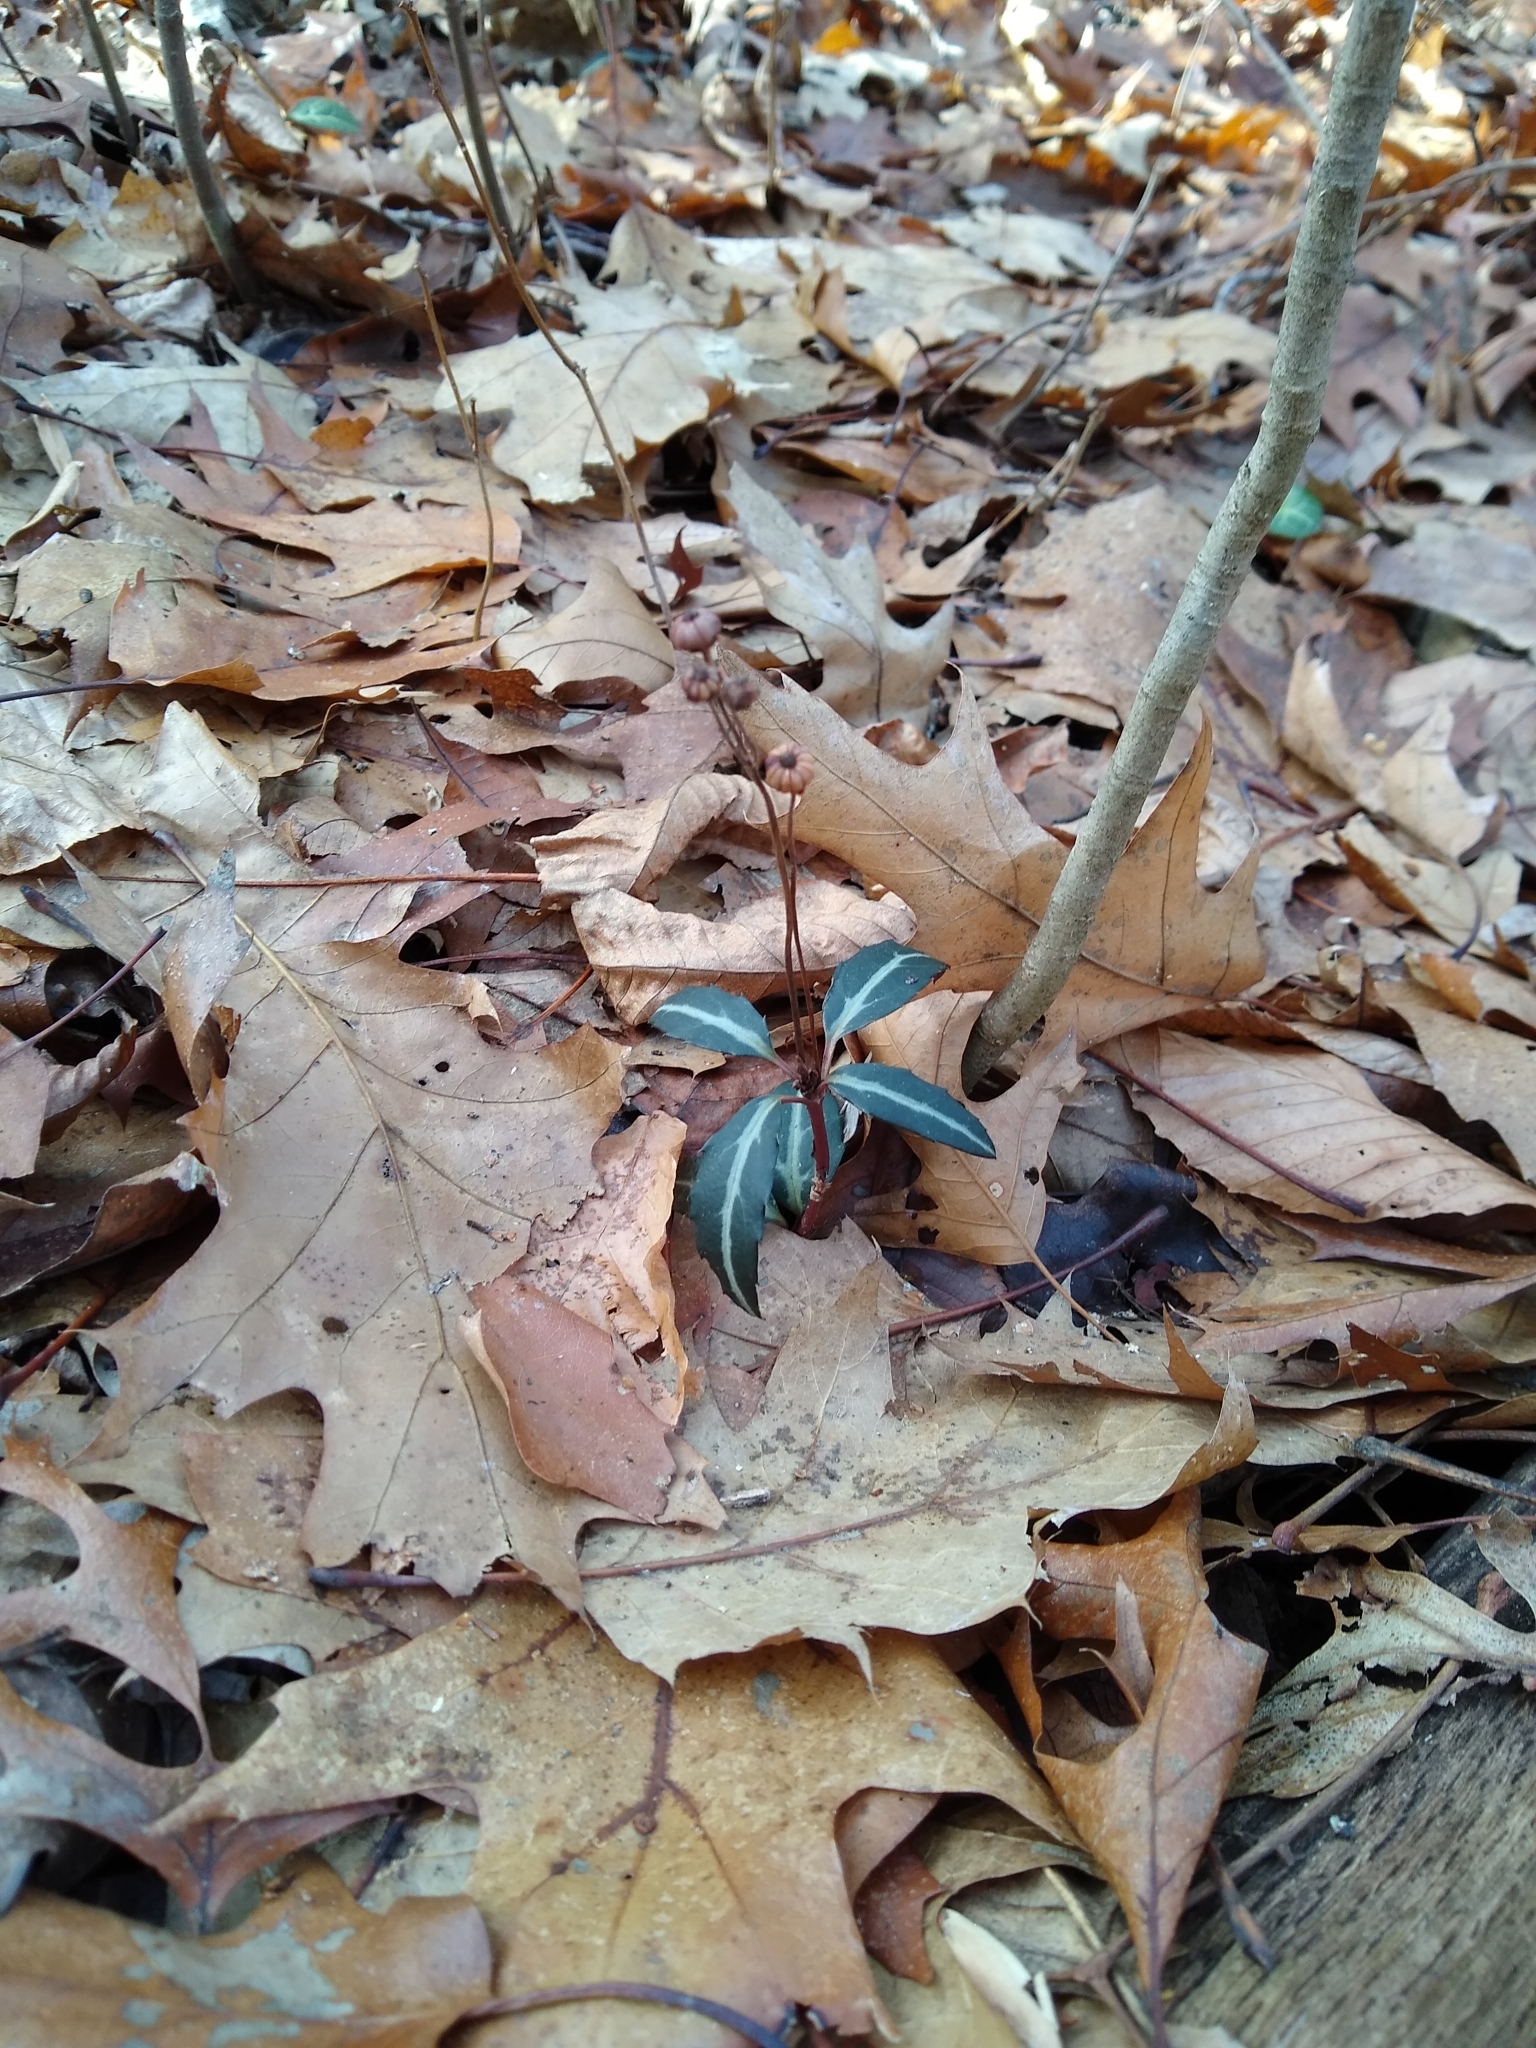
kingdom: Plantae
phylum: Tracheophyta
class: Magnoliopsida
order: Ericales
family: Ericaceae
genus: Chimaphila
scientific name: Chimaphila maculata
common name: Spotted pipsissewa
